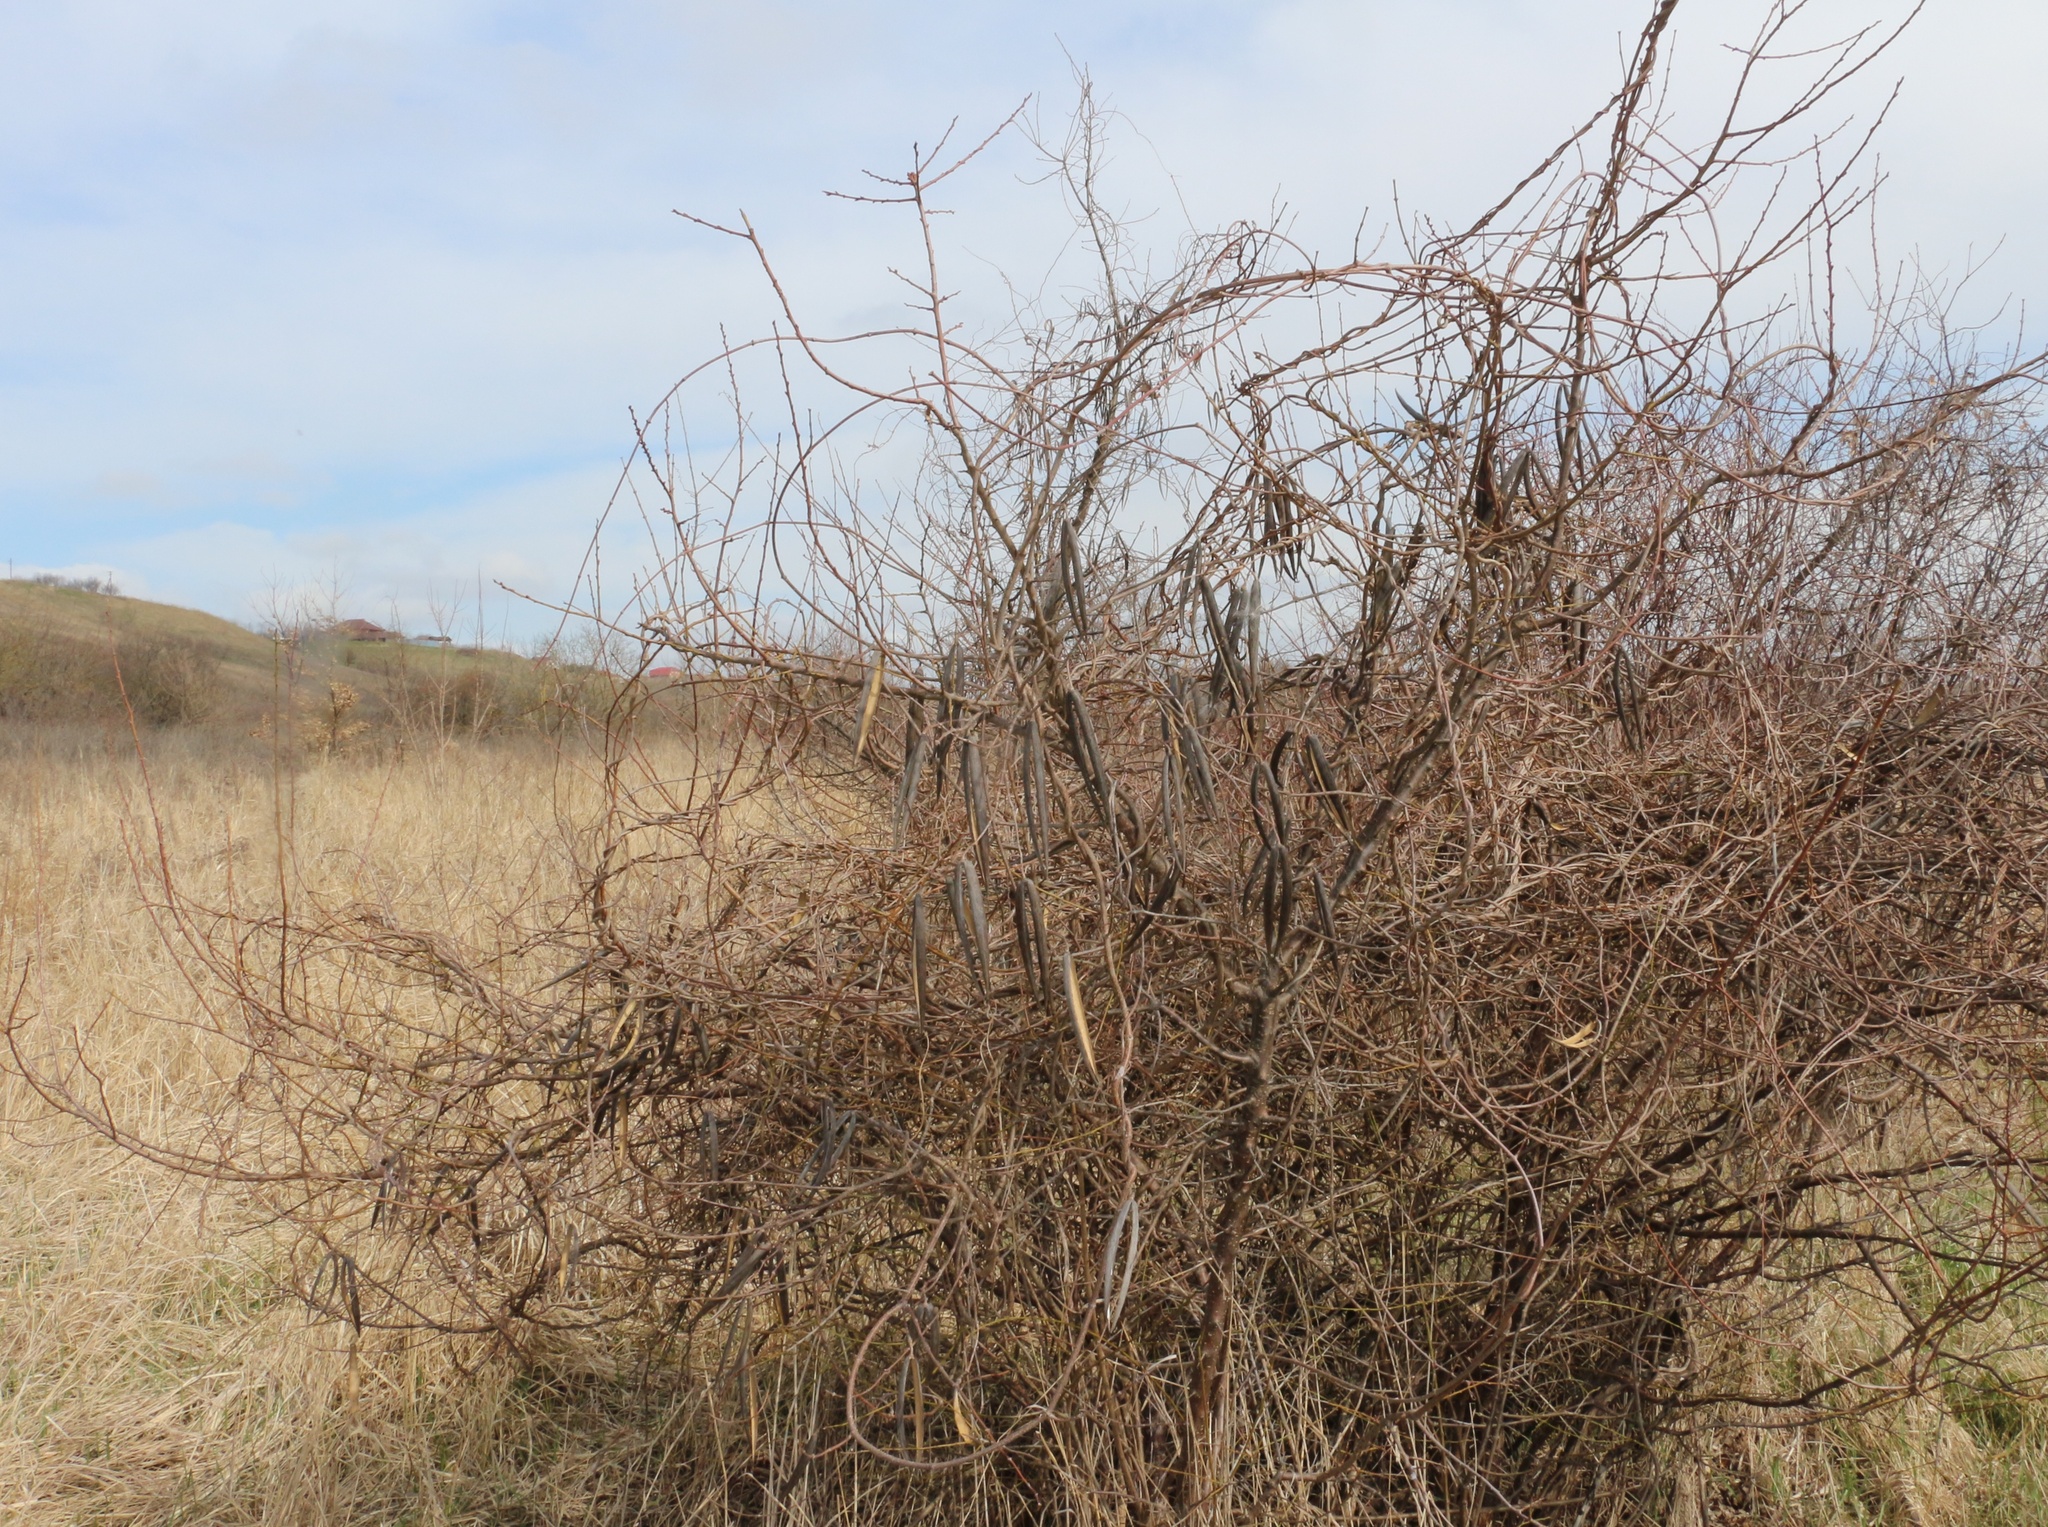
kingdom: Plantae
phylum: Tracheophyta
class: Magnoliopsida
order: Gentianales
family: Apocynaceae
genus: Periploca
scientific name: Periploca graeca
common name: Silkvine
